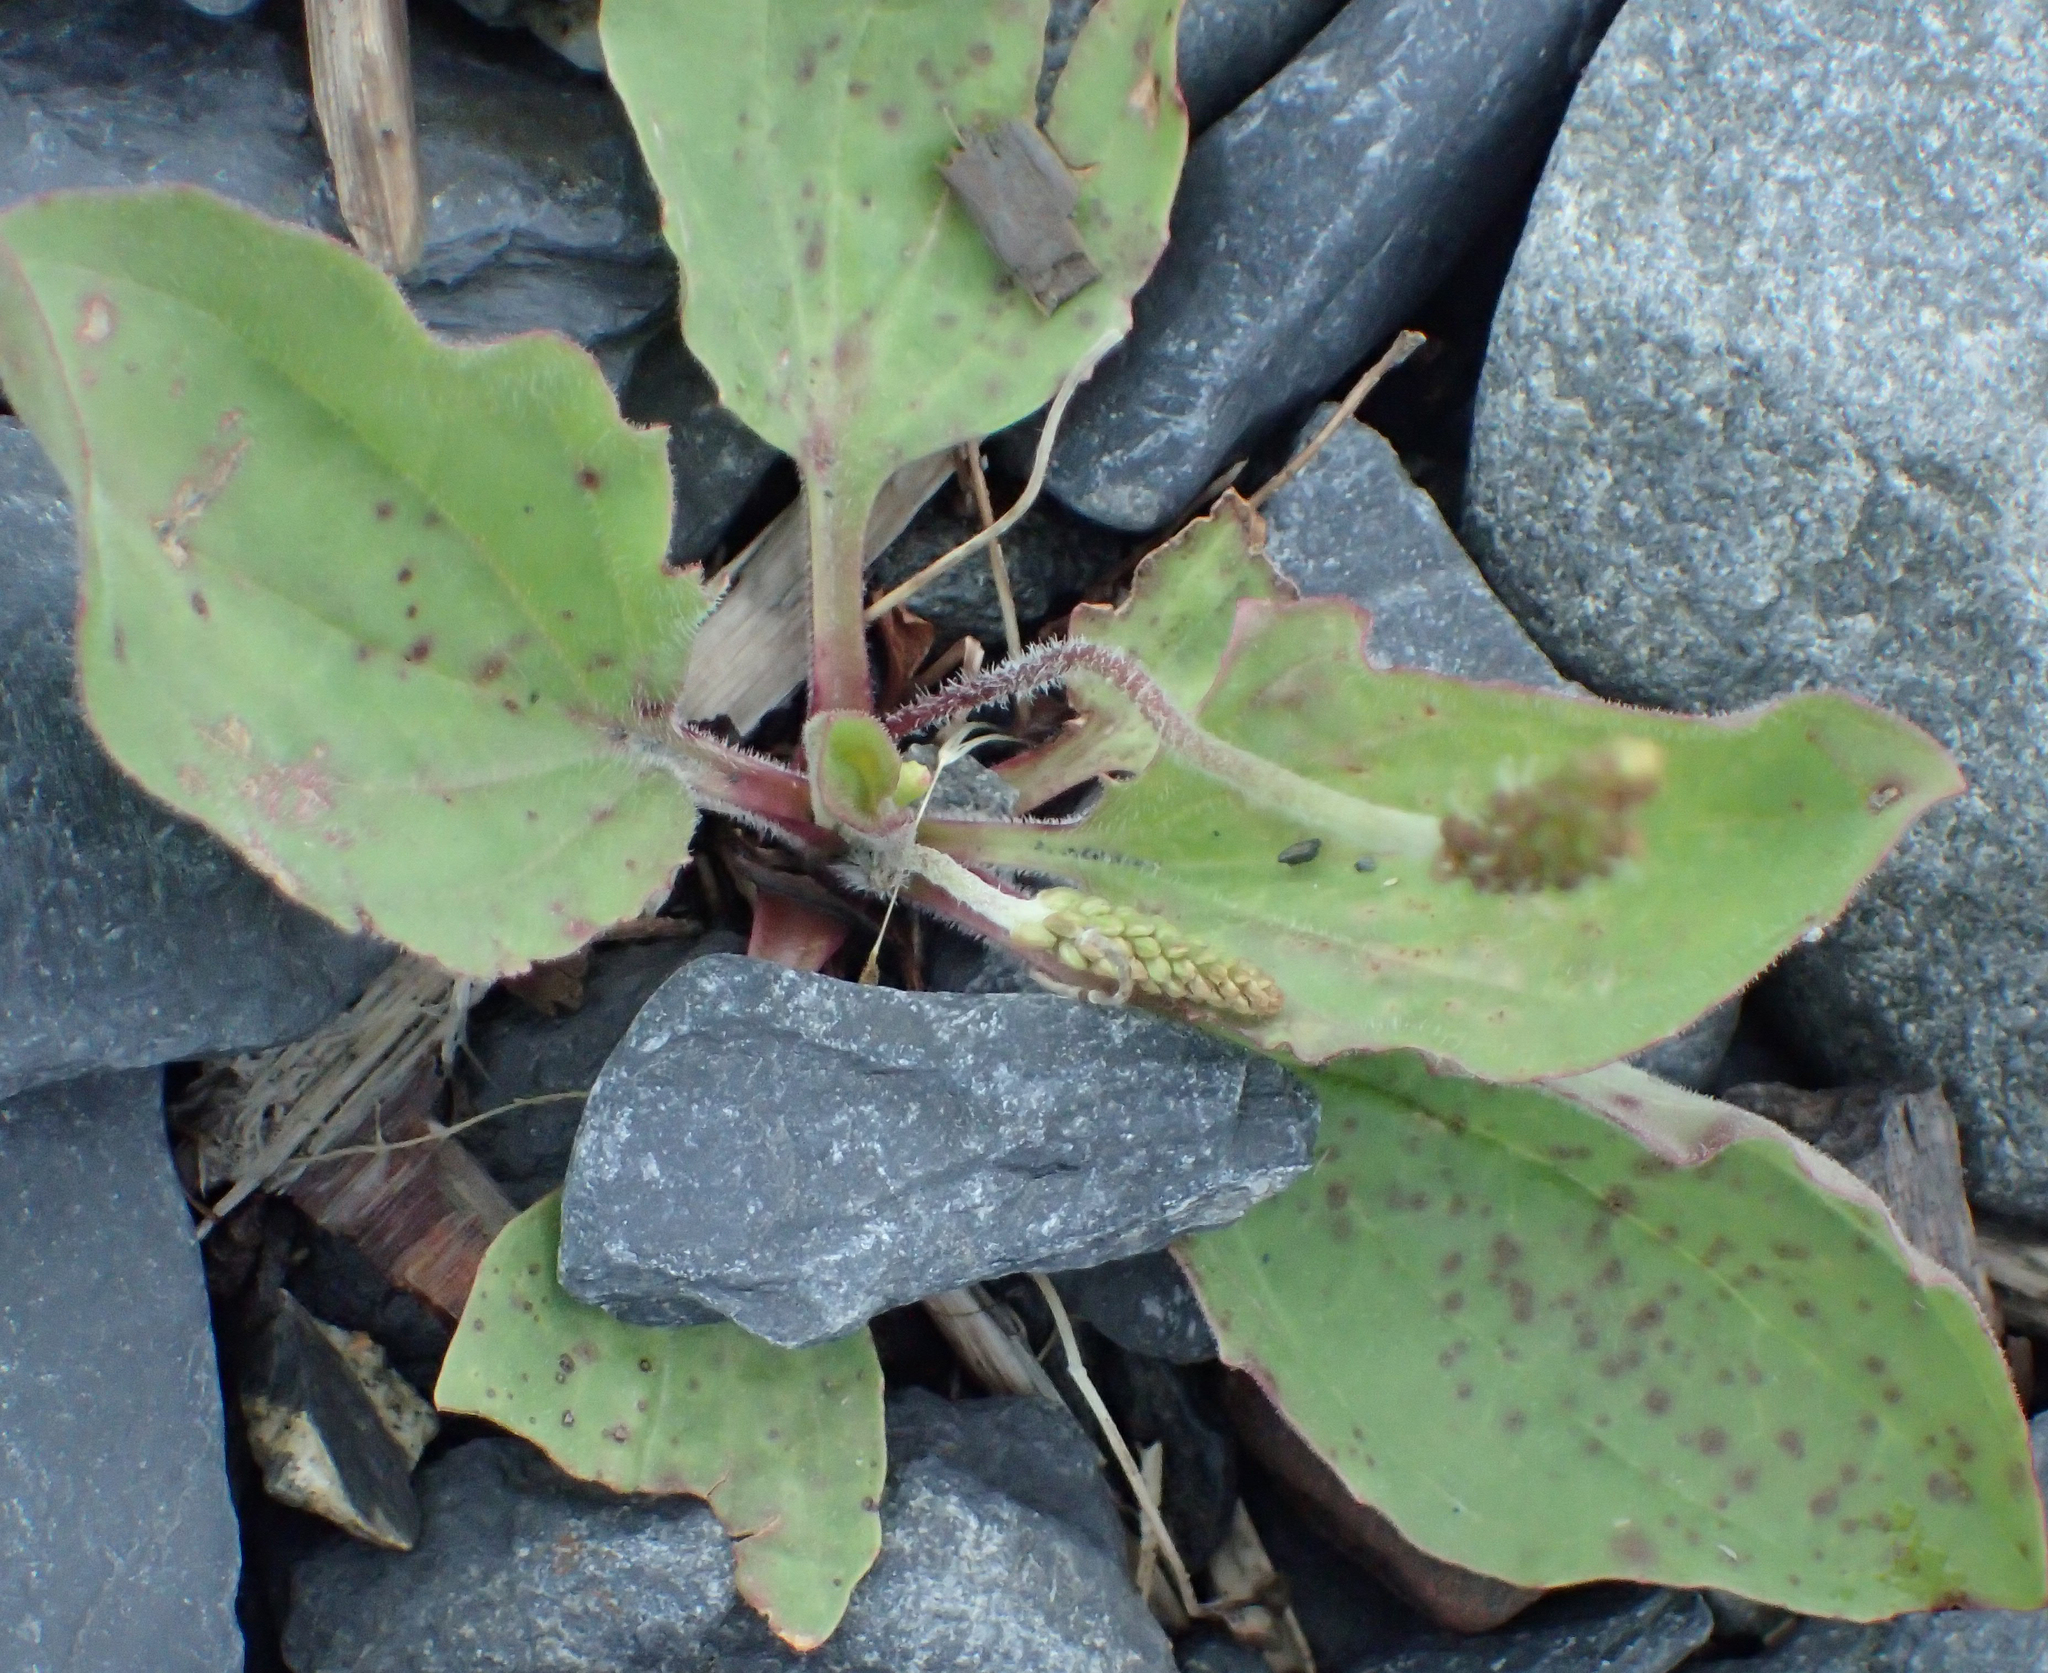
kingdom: Plantae
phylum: Tracheophyta
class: Magnoliopsida
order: Lamiales
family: Plantaginaceae
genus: Plantago
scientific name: Plantago major
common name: Common plantain
